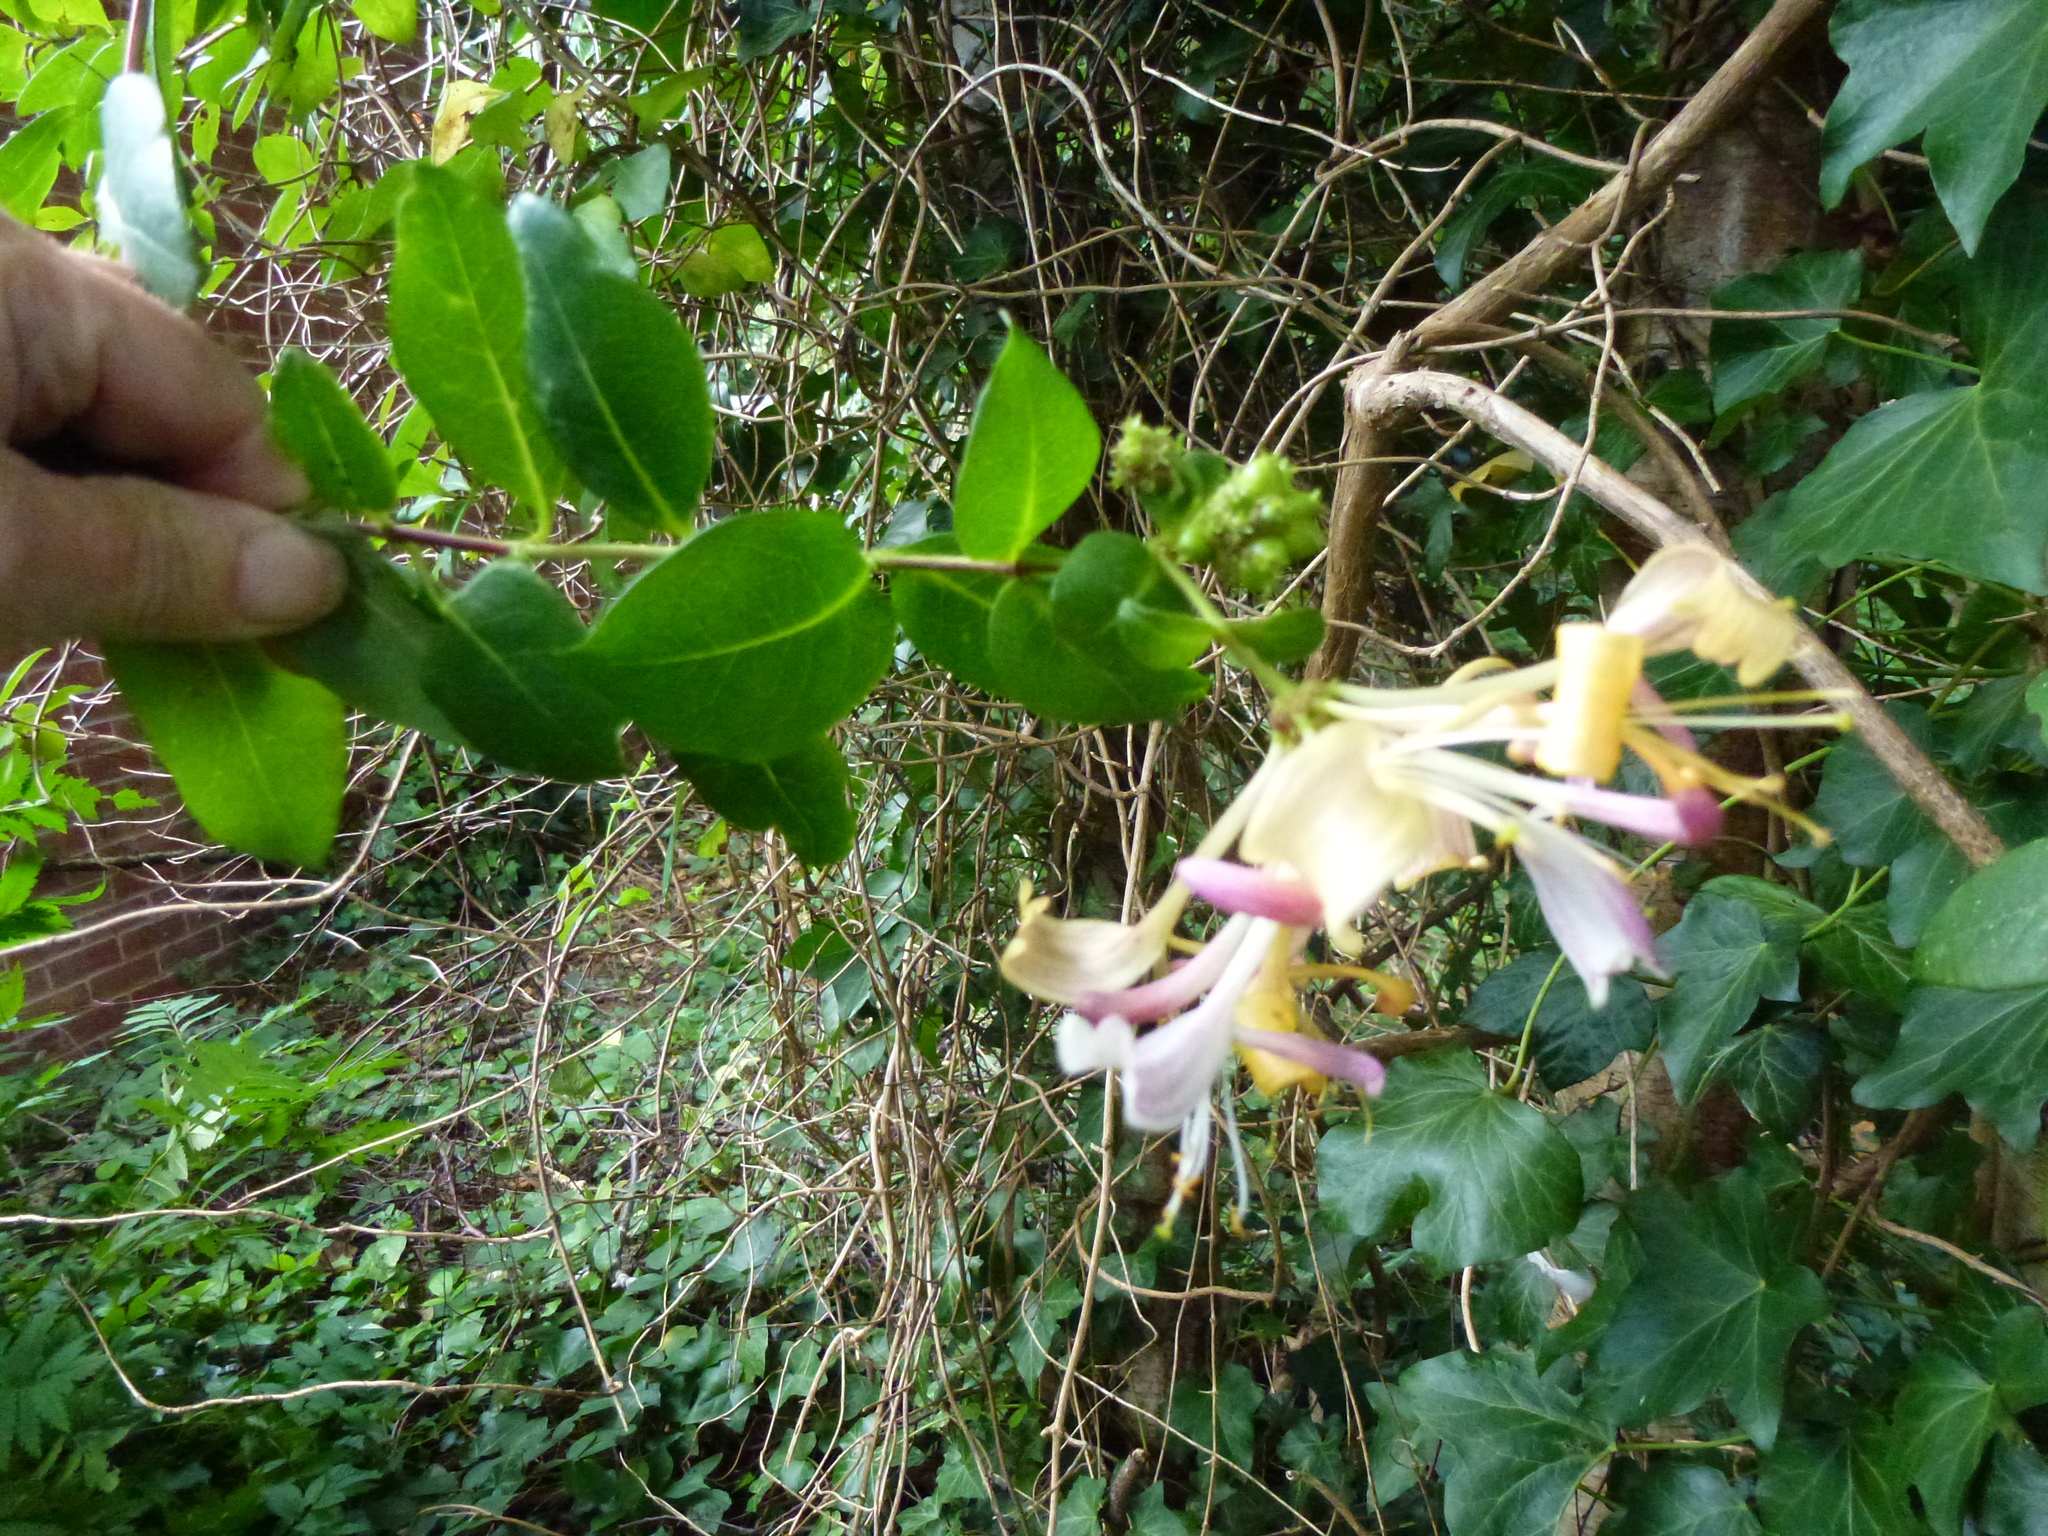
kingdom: Plantae
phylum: Tracheophyta
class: Magnoliopsida
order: Dipsacales
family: Caprifoliaceae
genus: Lonicera
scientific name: Lonicera periclymenum
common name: European honeysuckle
